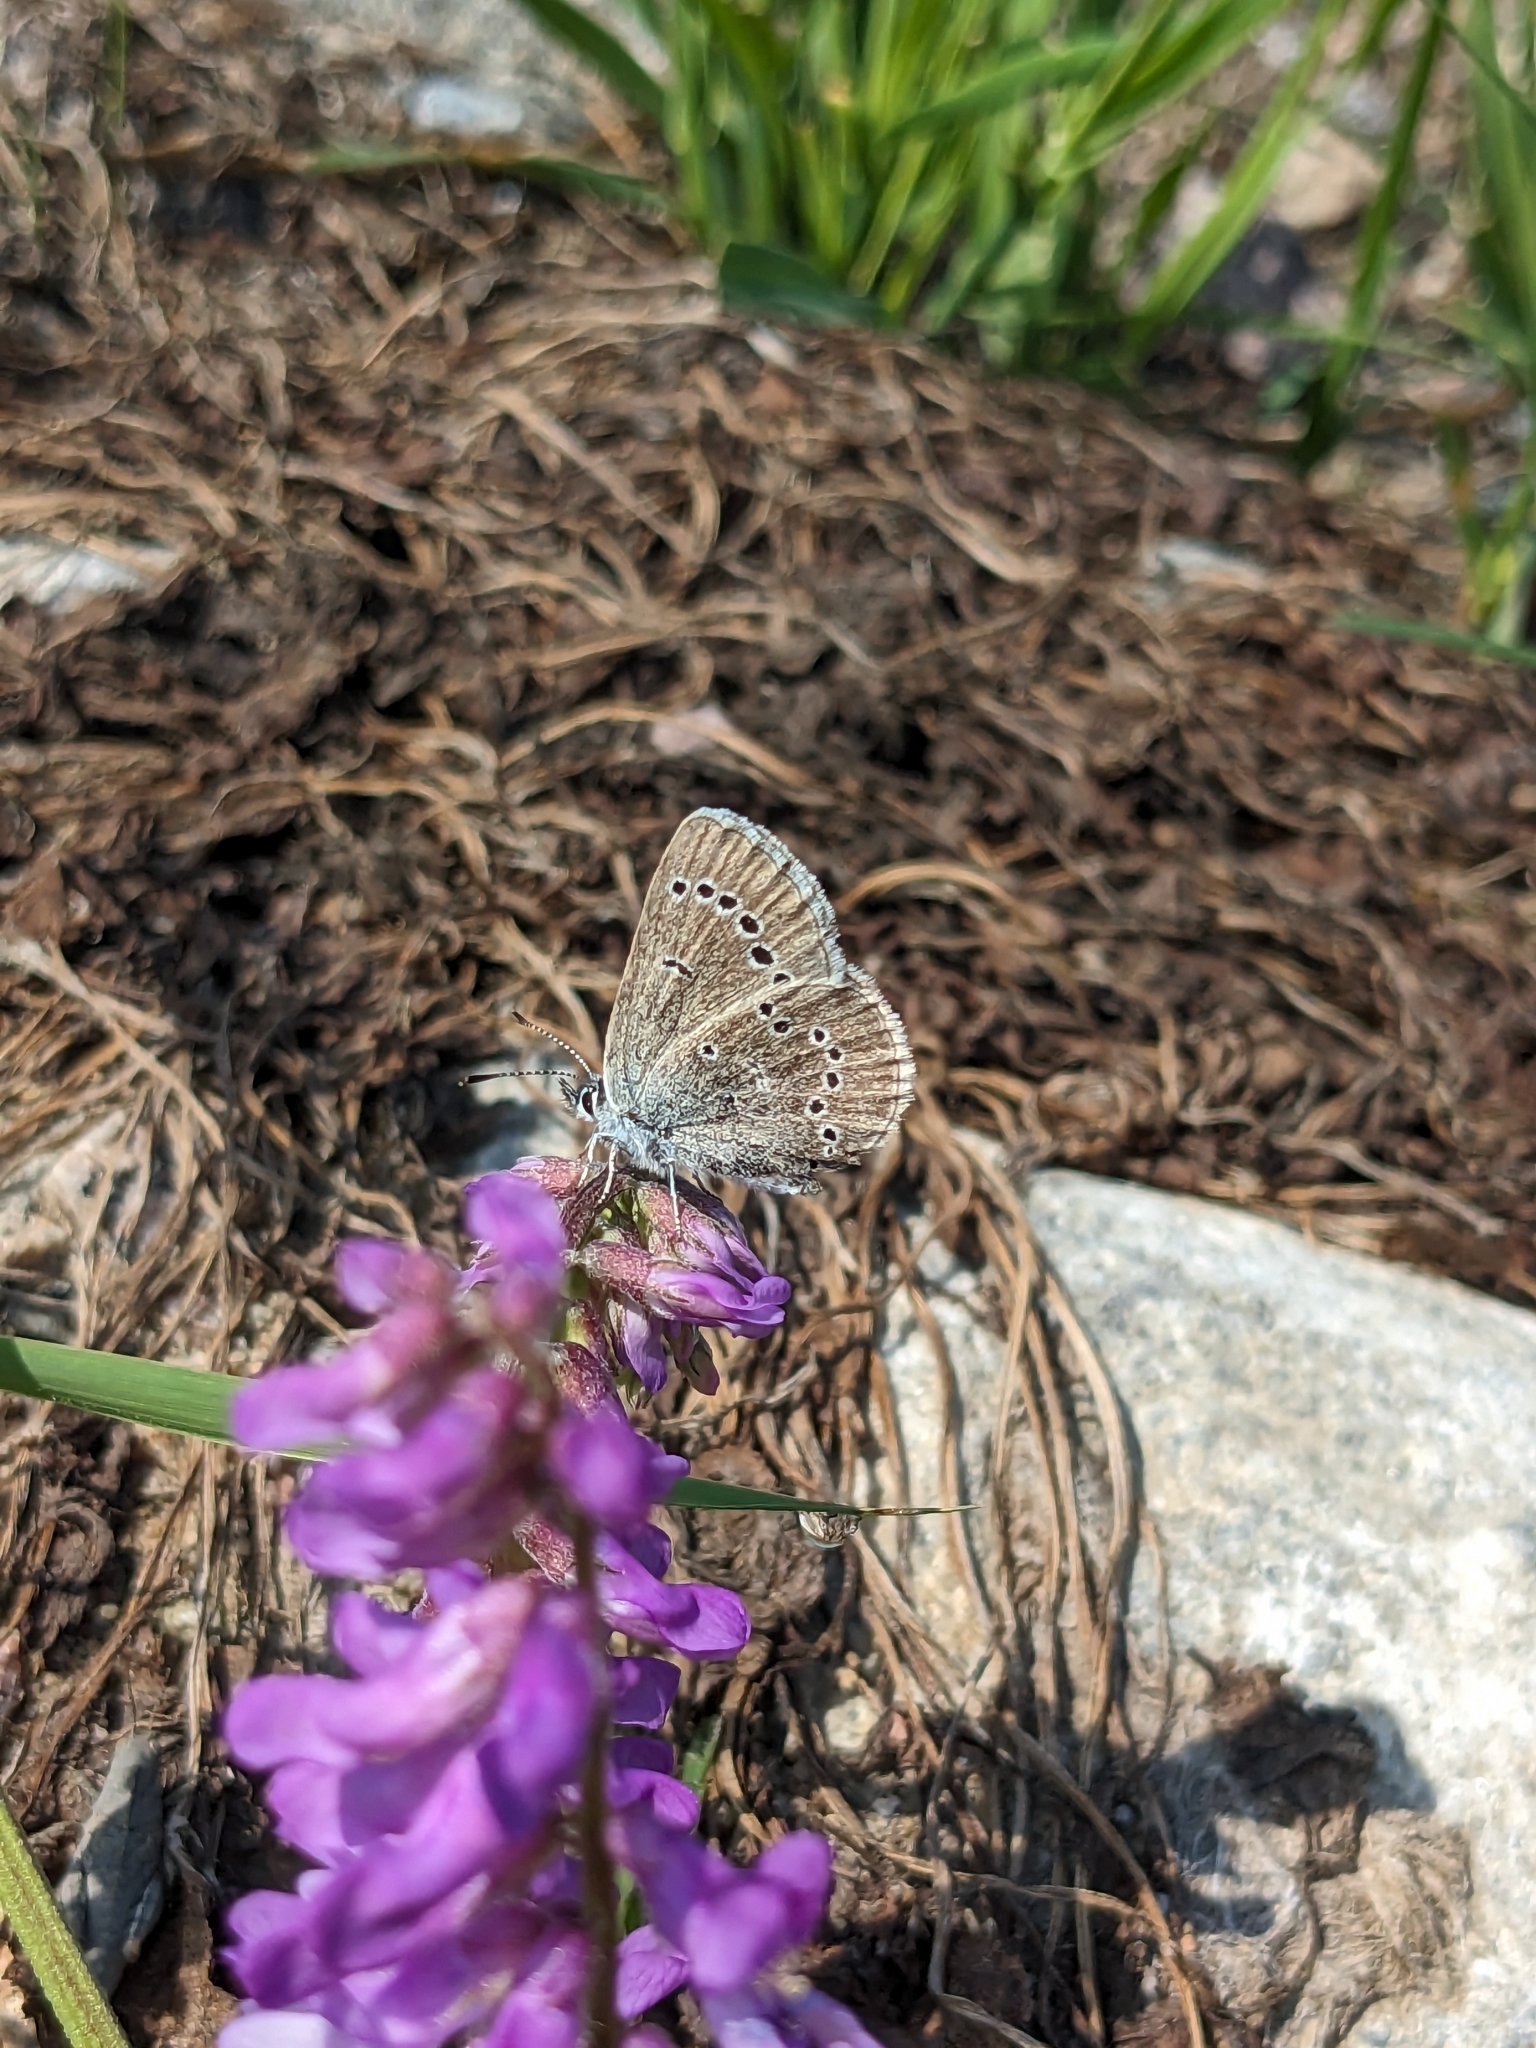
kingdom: Animalia
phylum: Arthropoda
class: Insecta
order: Lepidoptera
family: Lycaenidae
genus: Glaucopsyche
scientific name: Glaucopsyche lygdamus
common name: Silvery blue
